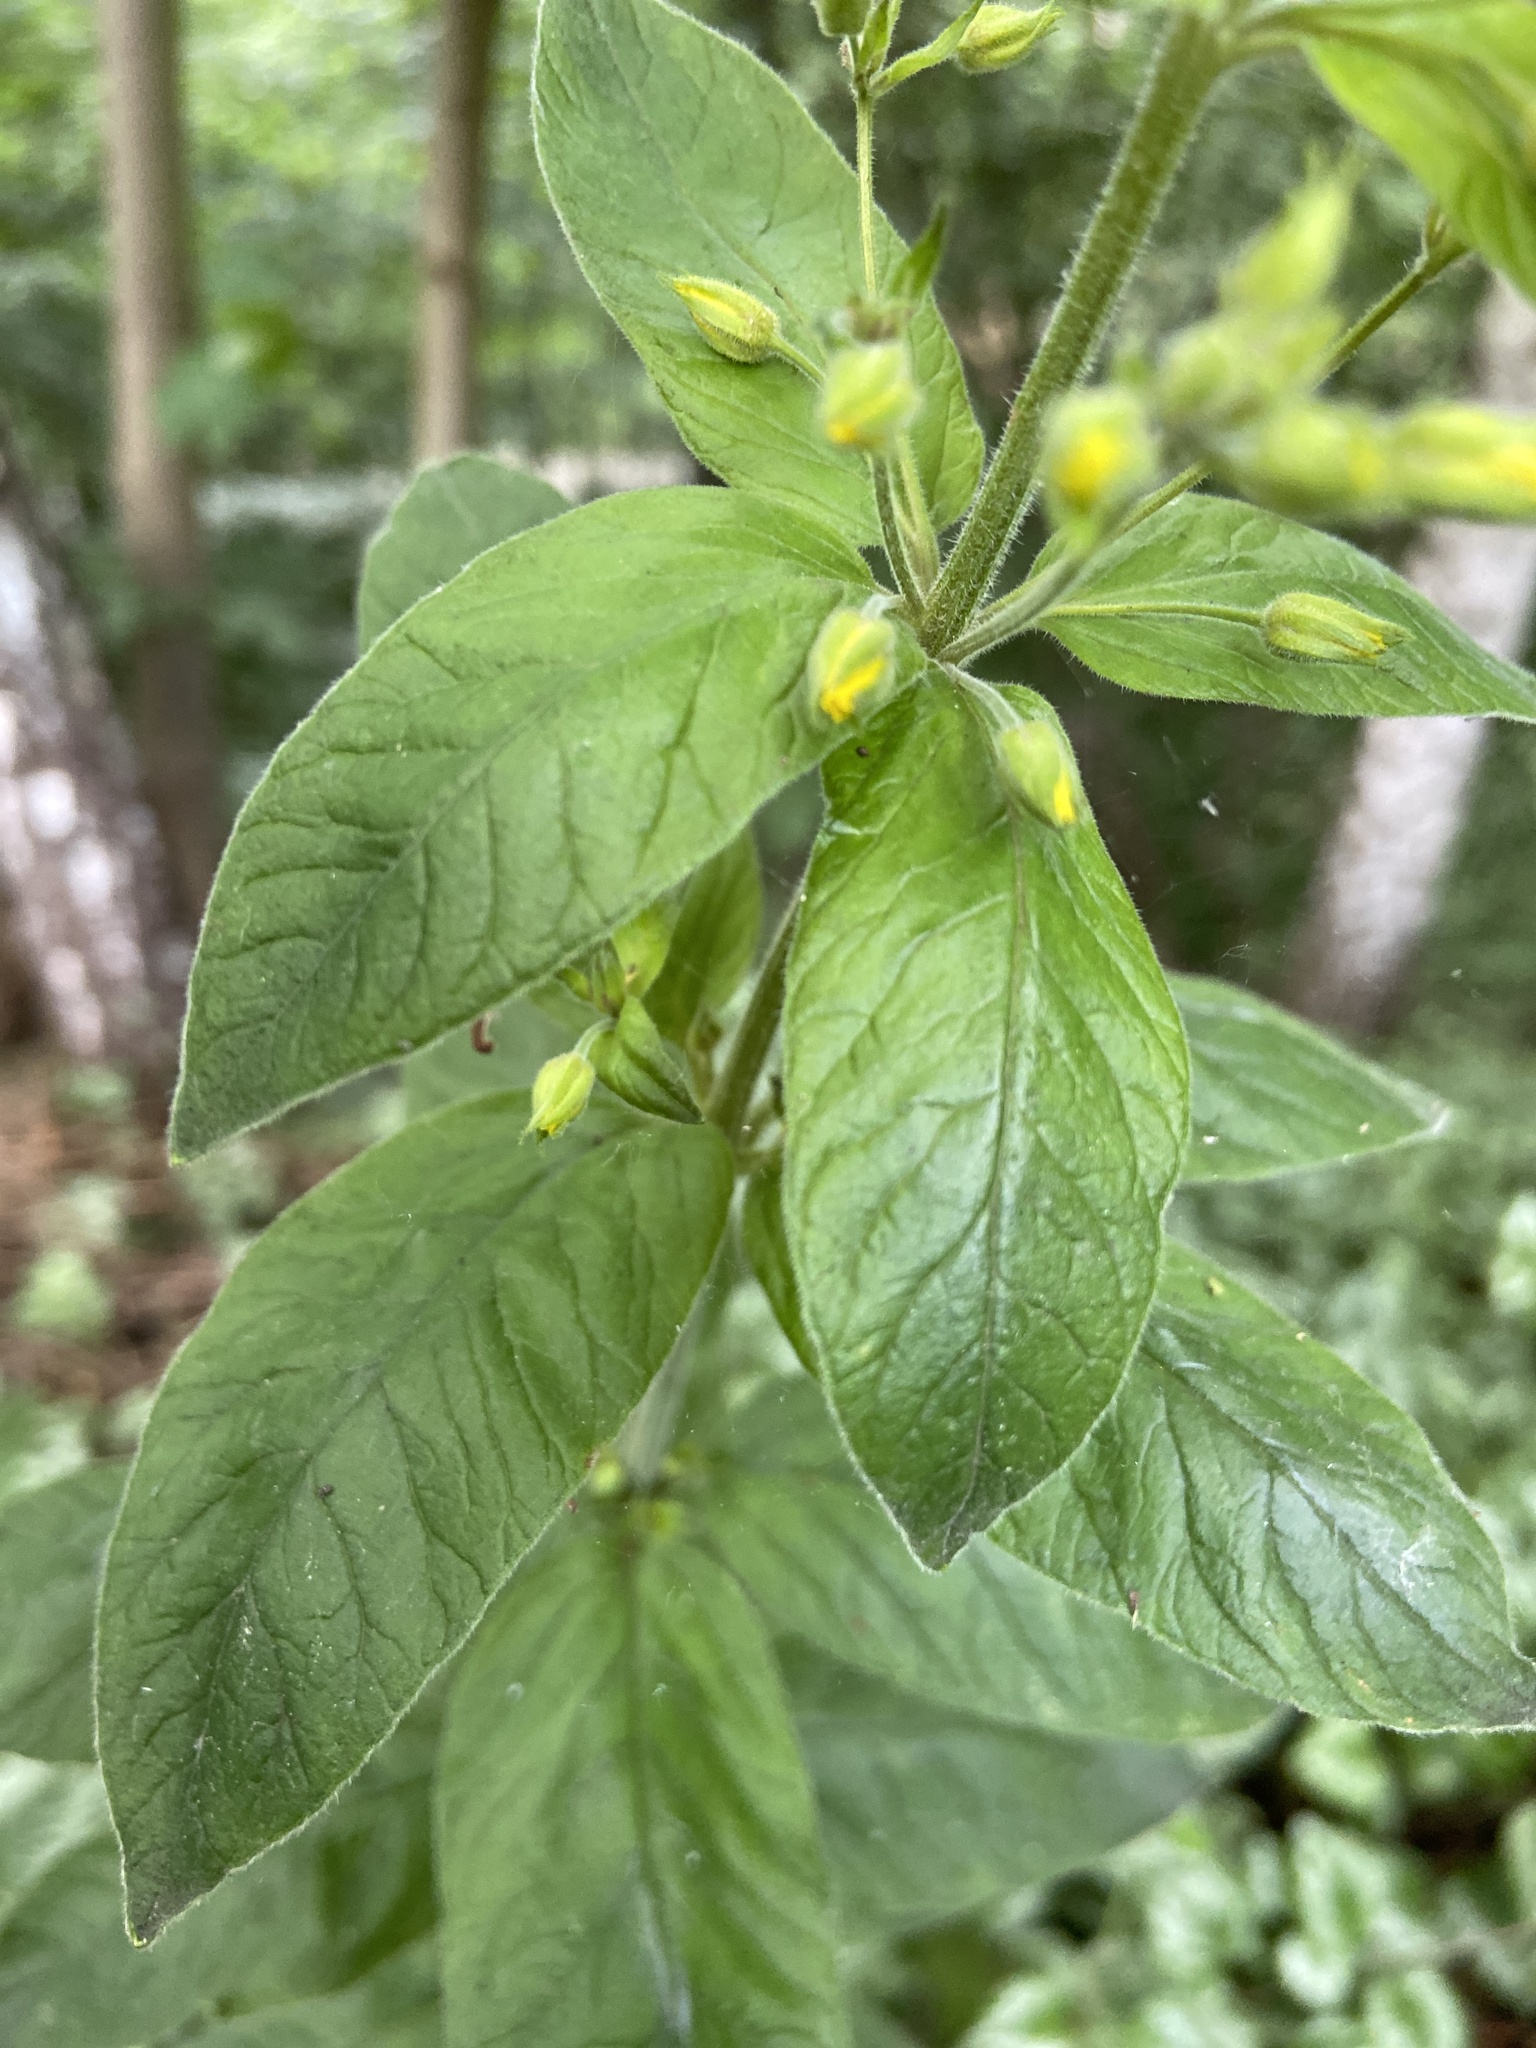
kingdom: Plantae
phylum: Tracheophyta
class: Magnoliopsida
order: Ericales
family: Primulaceae
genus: Lysimachia
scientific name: Lysimachia punctata
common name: Dotted loosestrife
